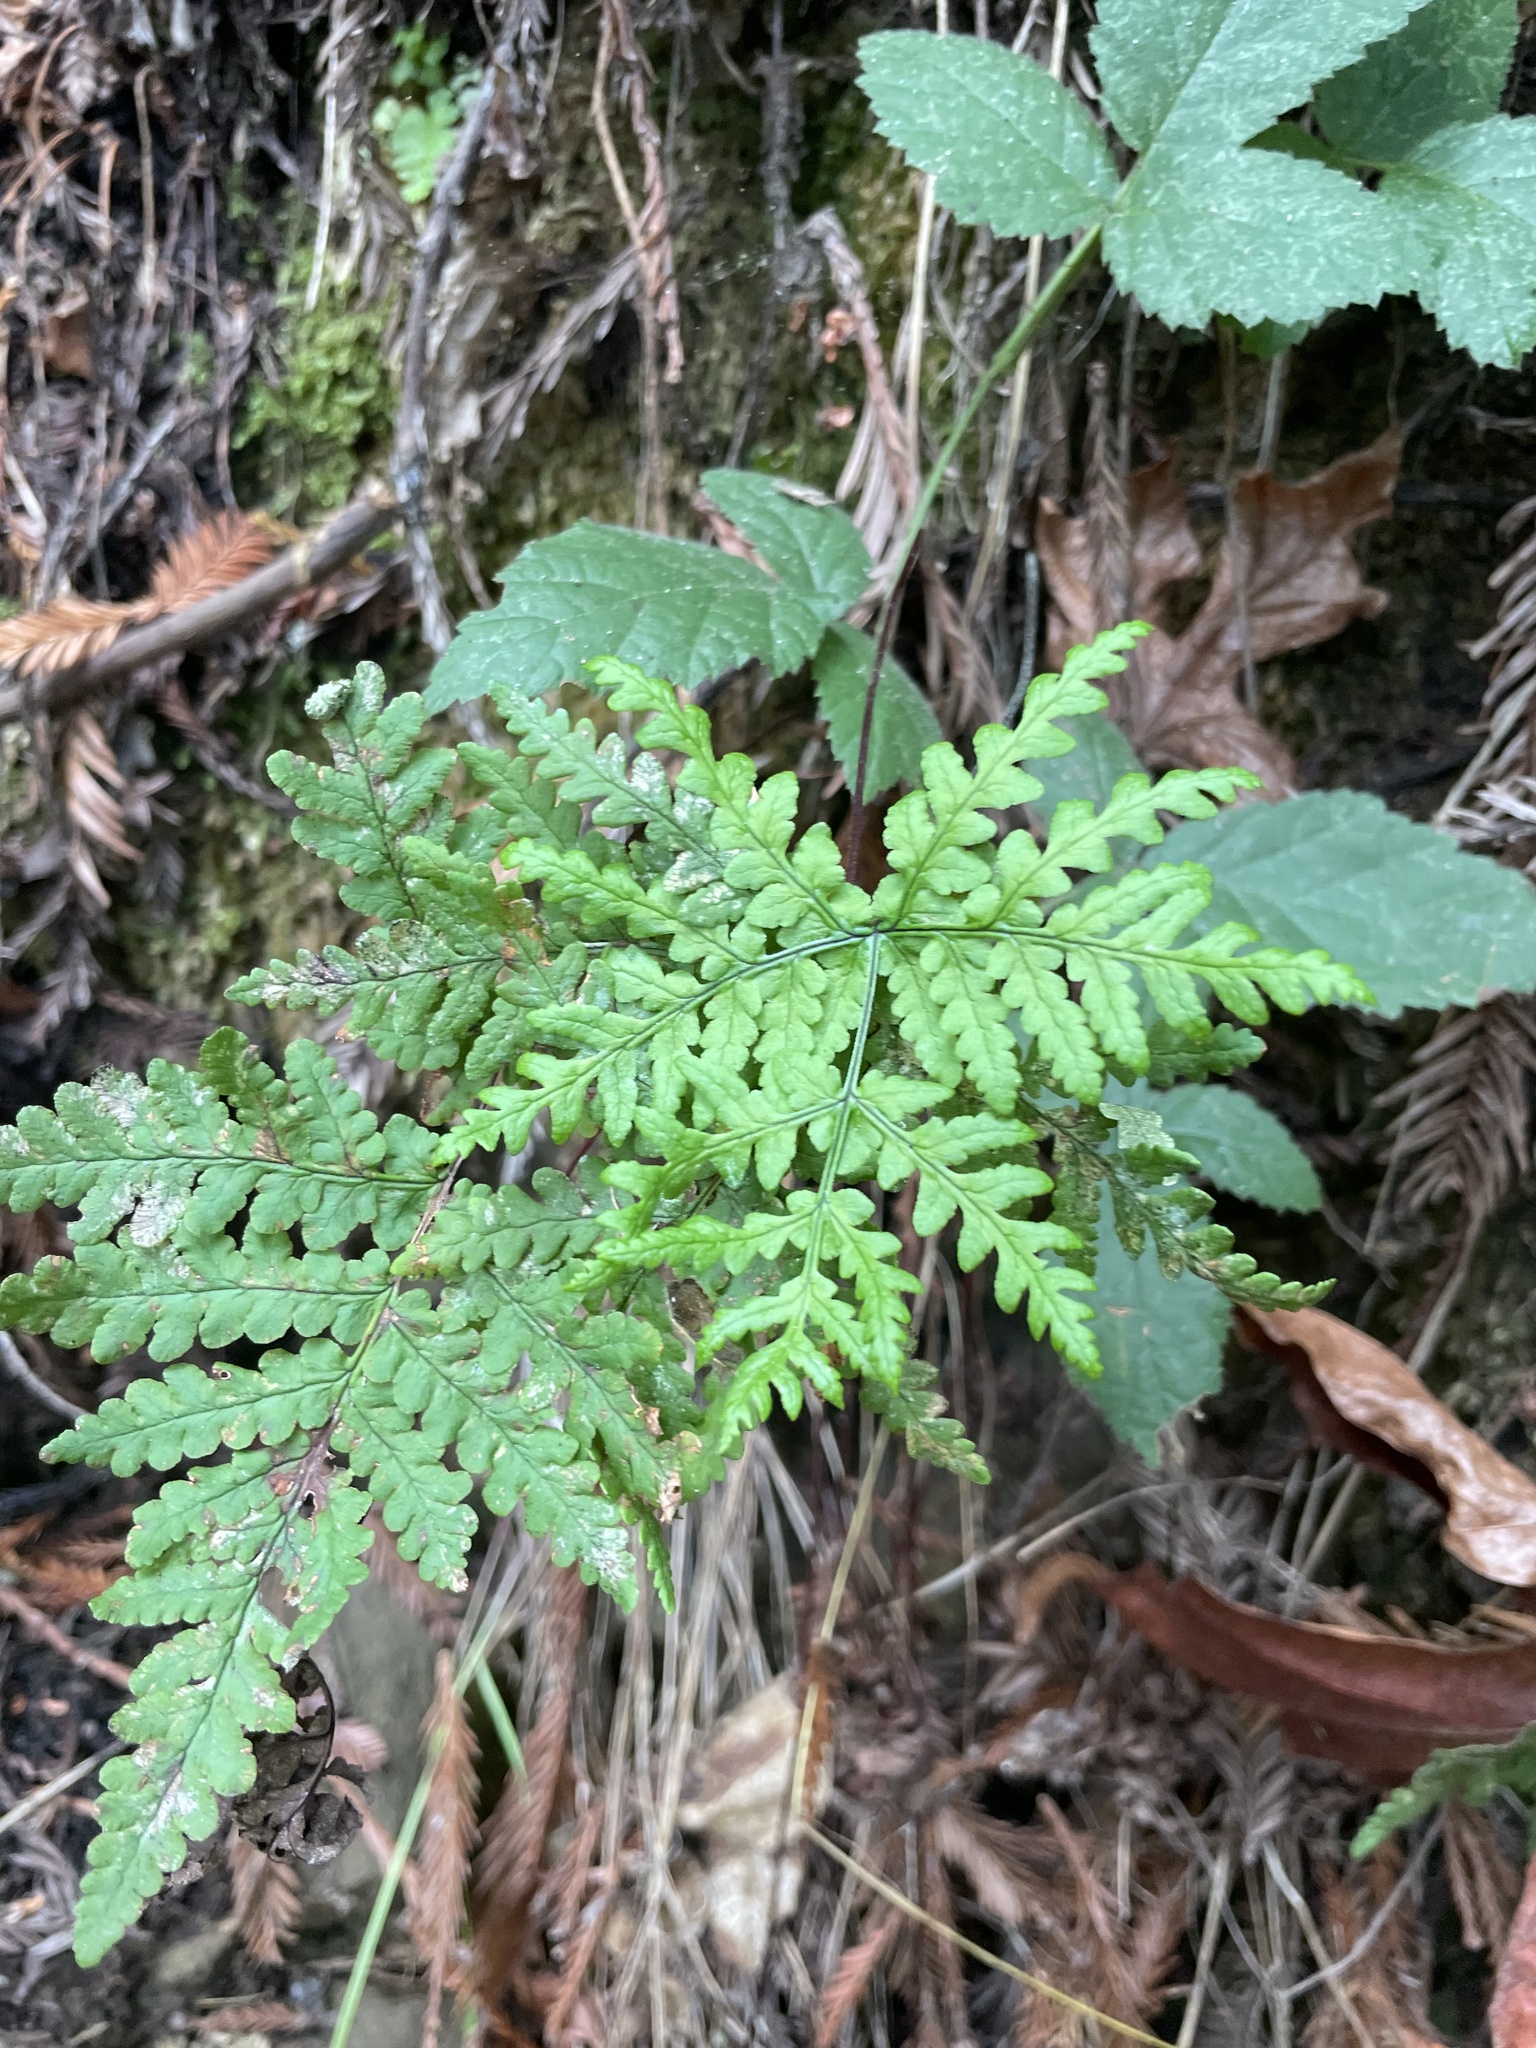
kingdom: Plantae
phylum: Tracheophyta
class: Polypodiopsida
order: Polypodiales
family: Pteridaceae
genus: Pentagramma
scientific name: Pentagramma triangularis
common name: Gold fern
